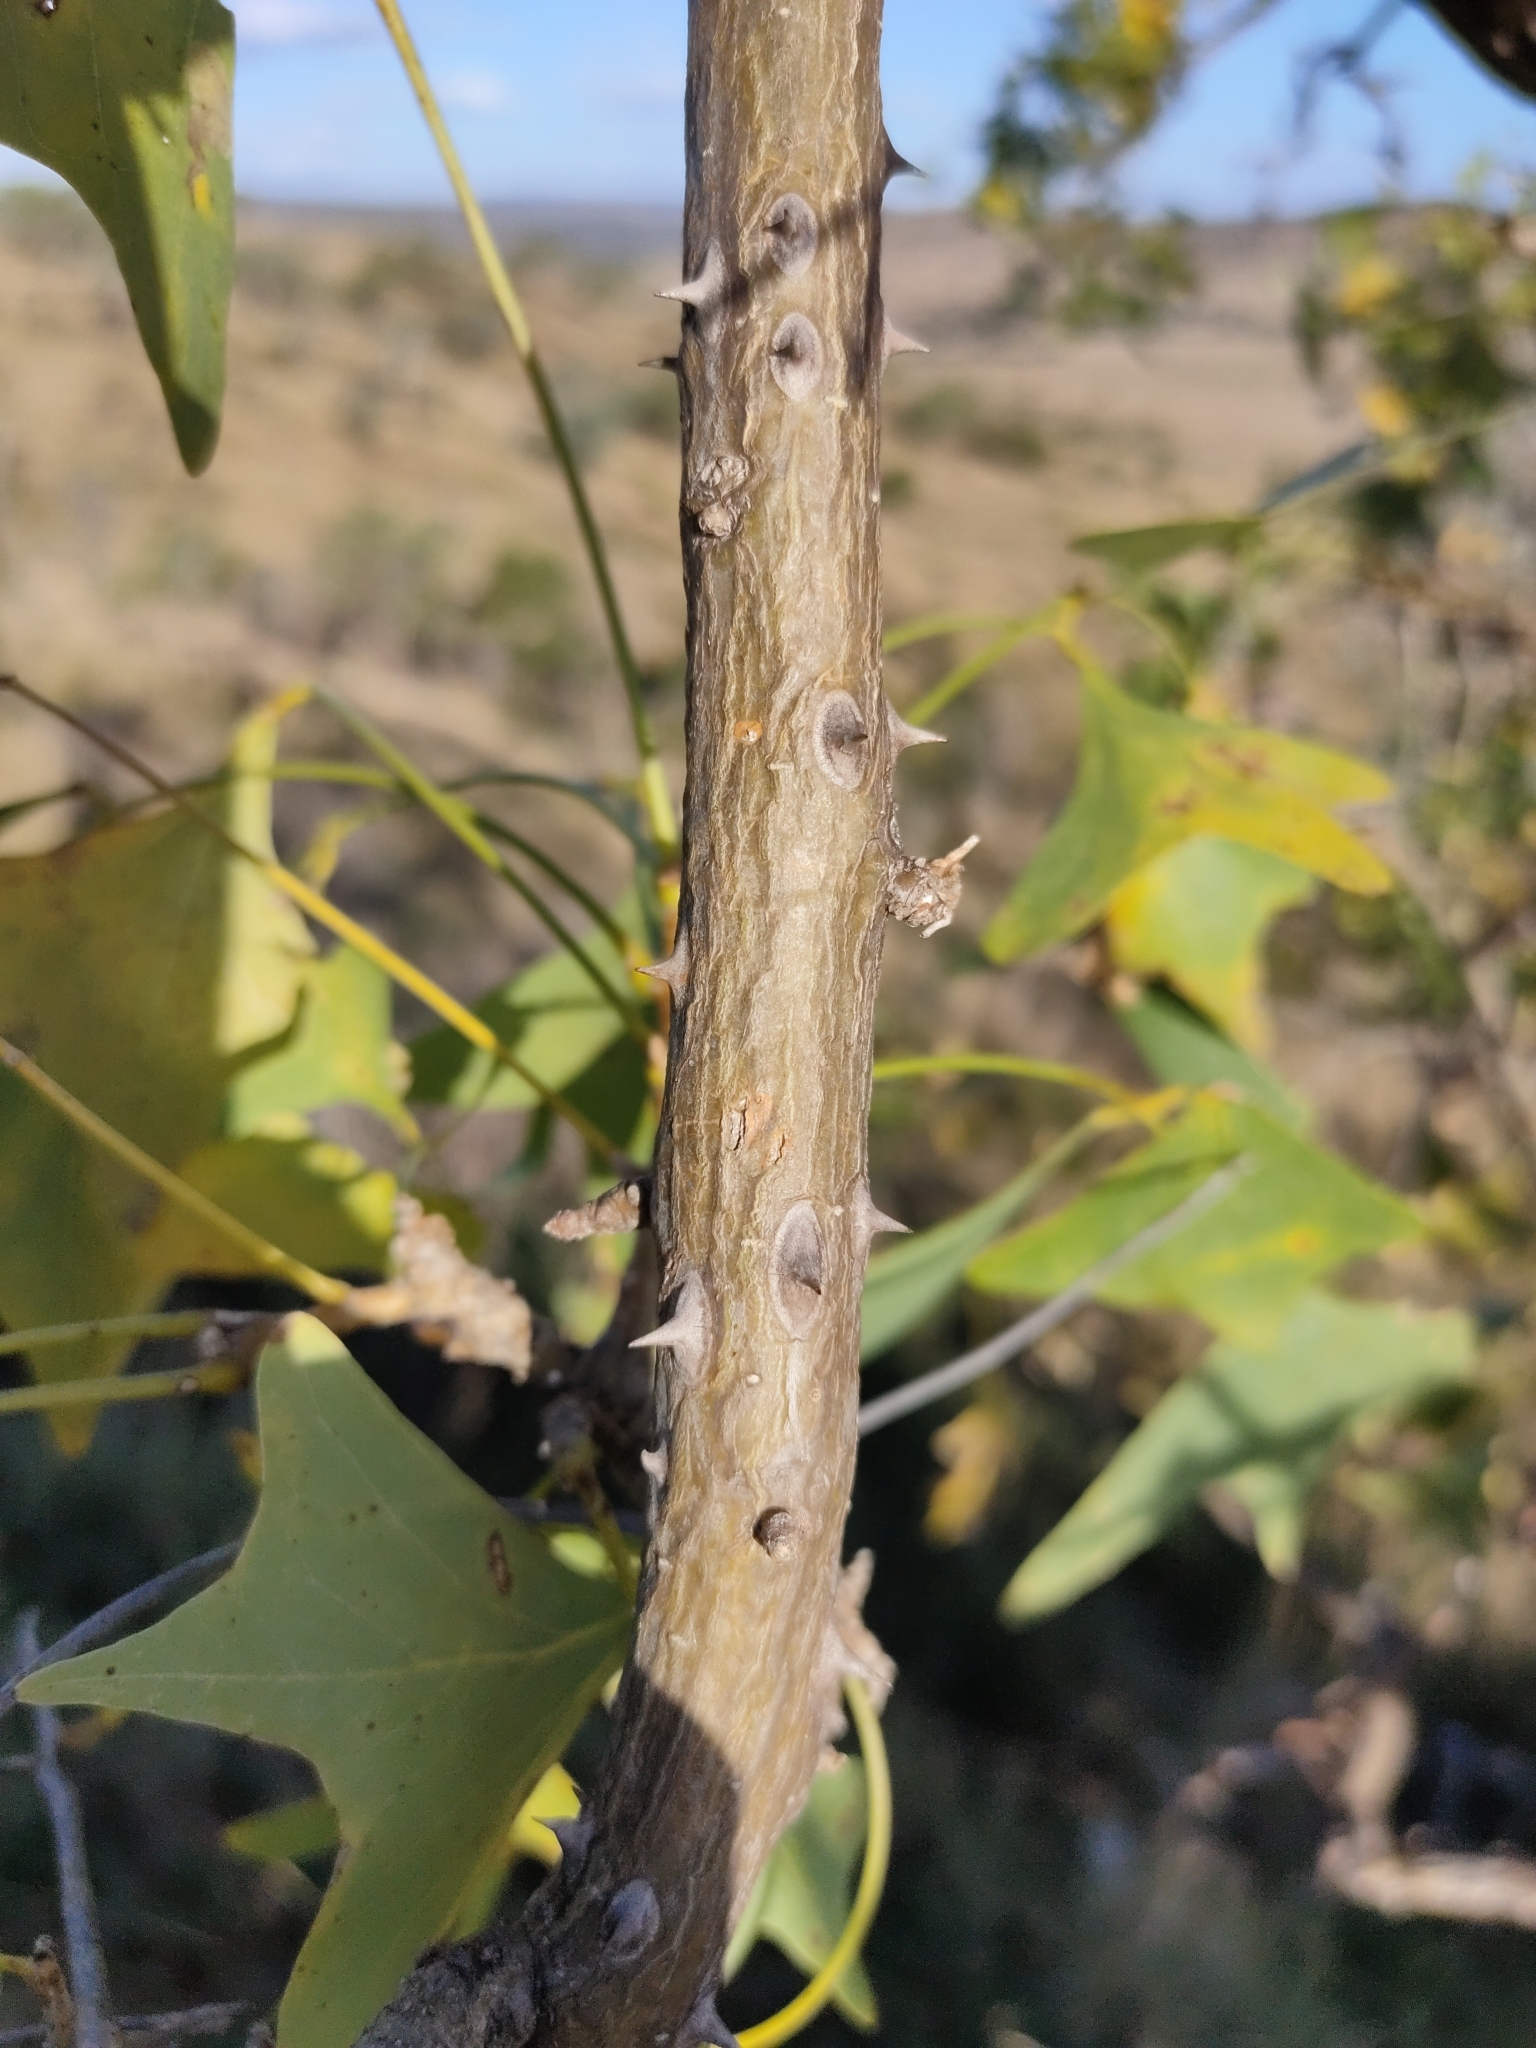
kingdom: Plantae
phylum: Tracheophyta
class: Magnoliopsida
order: Fabales
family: Fabaceae
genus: Erythrina
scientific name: Erythrina vespertilio
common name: Bat-wing coral tree
